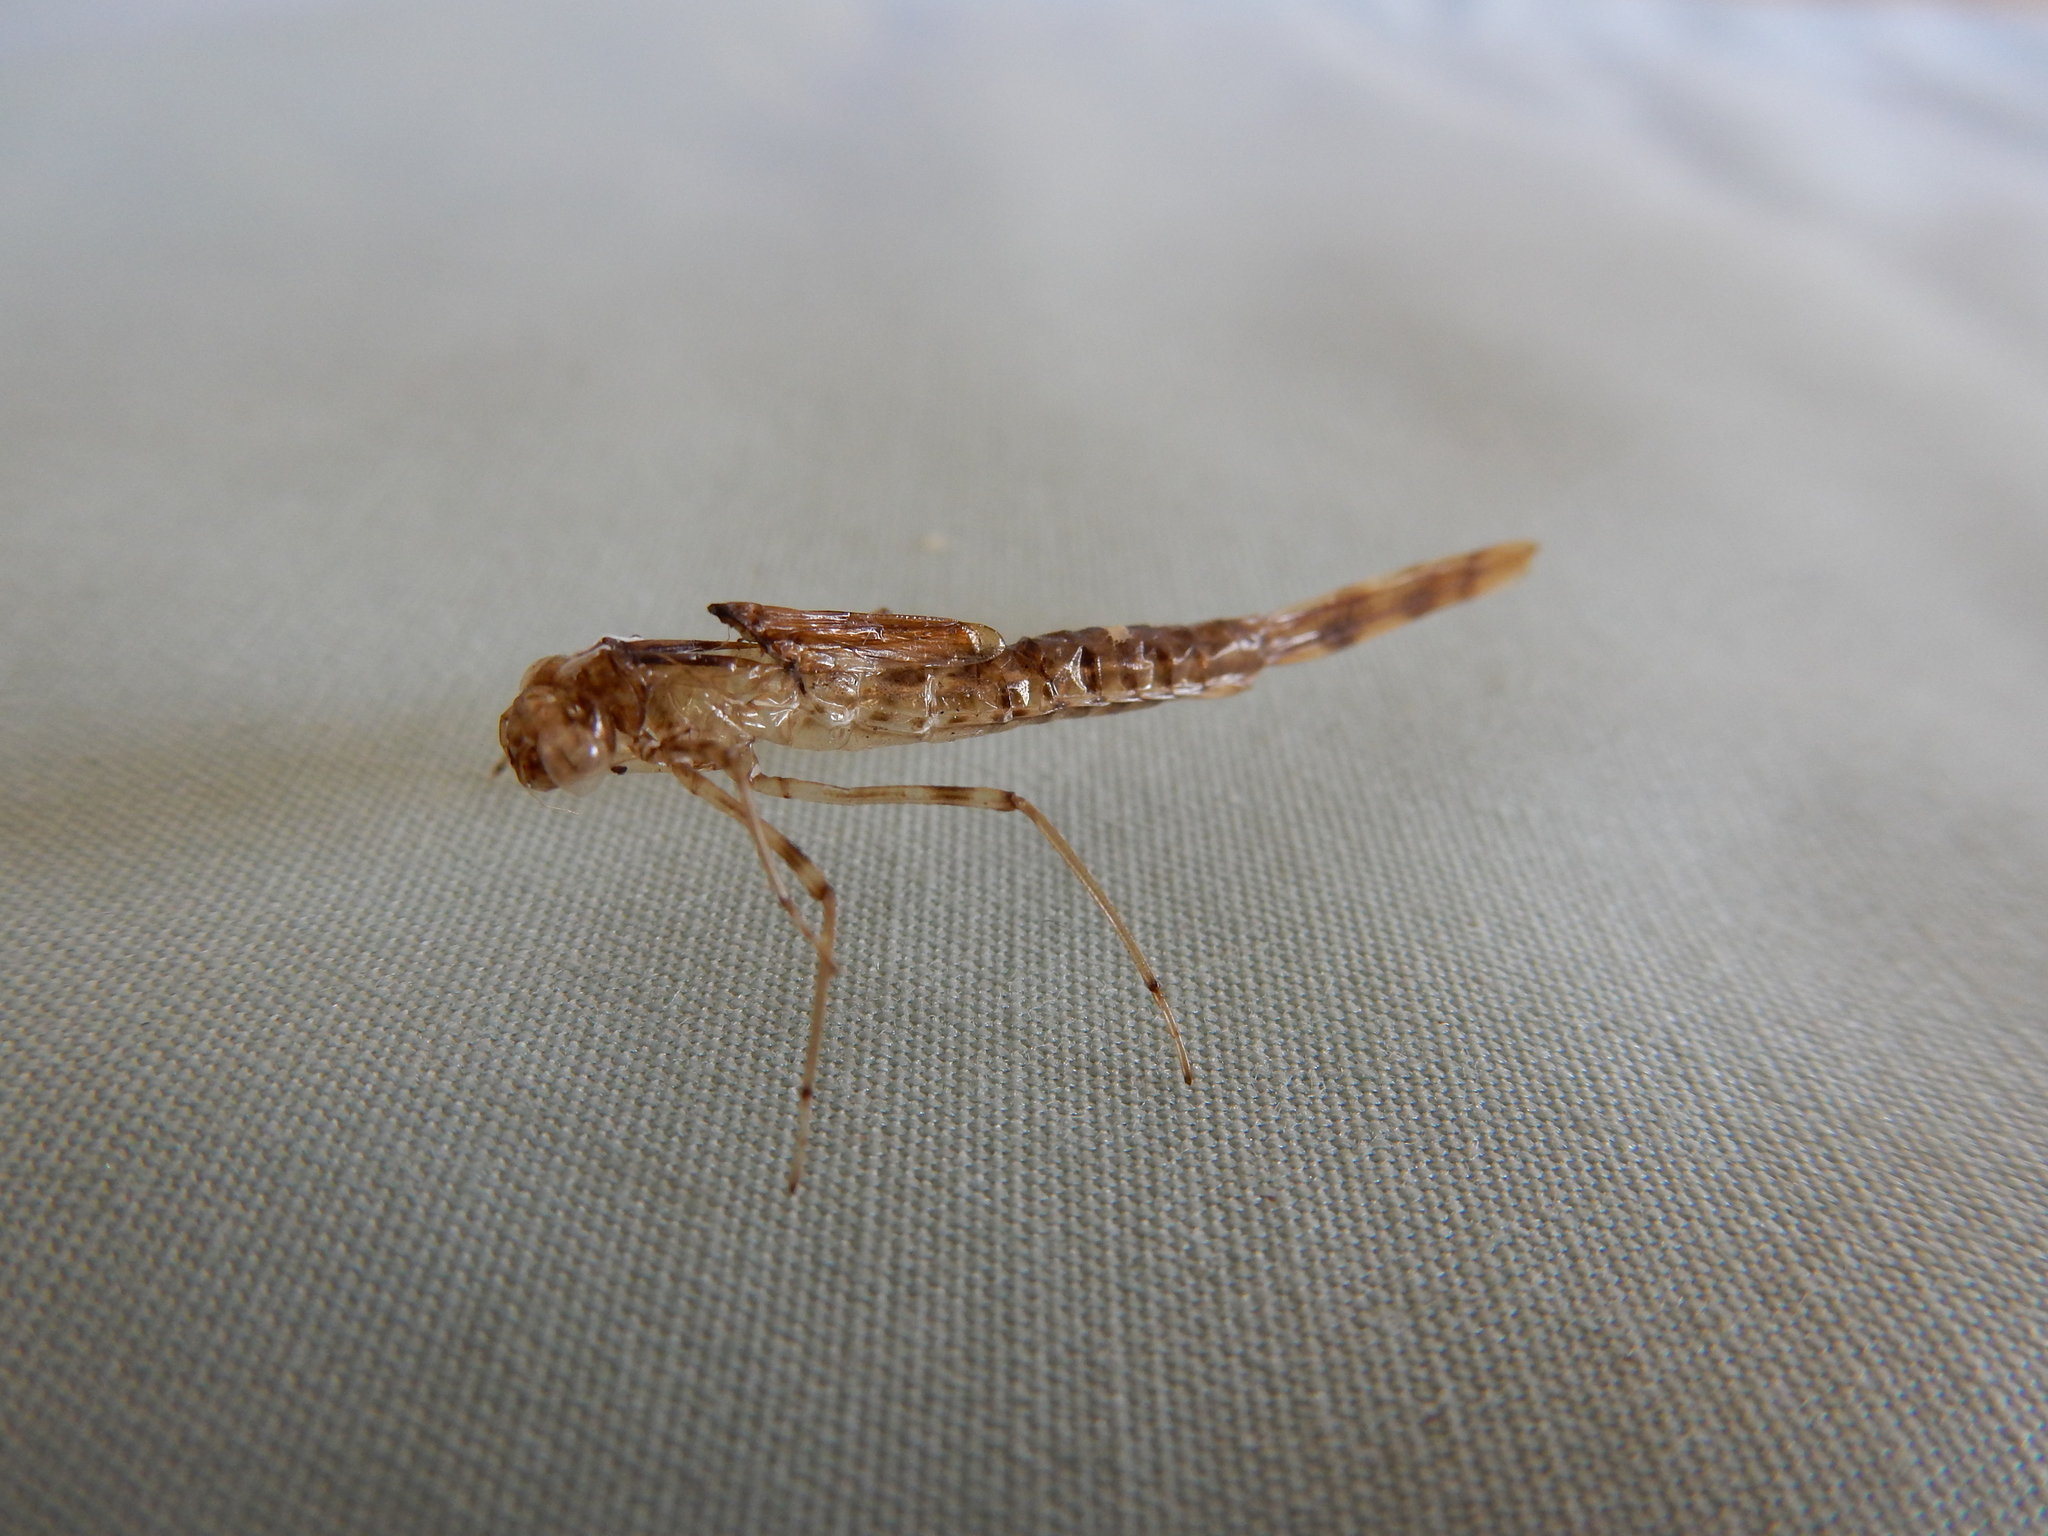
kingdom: Animalia
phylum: Arthropoda
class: Insecta
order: Odonata
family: Lestidae
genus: Austrolestes
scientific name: Austrolestes colensonis
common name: Blue damselfly
